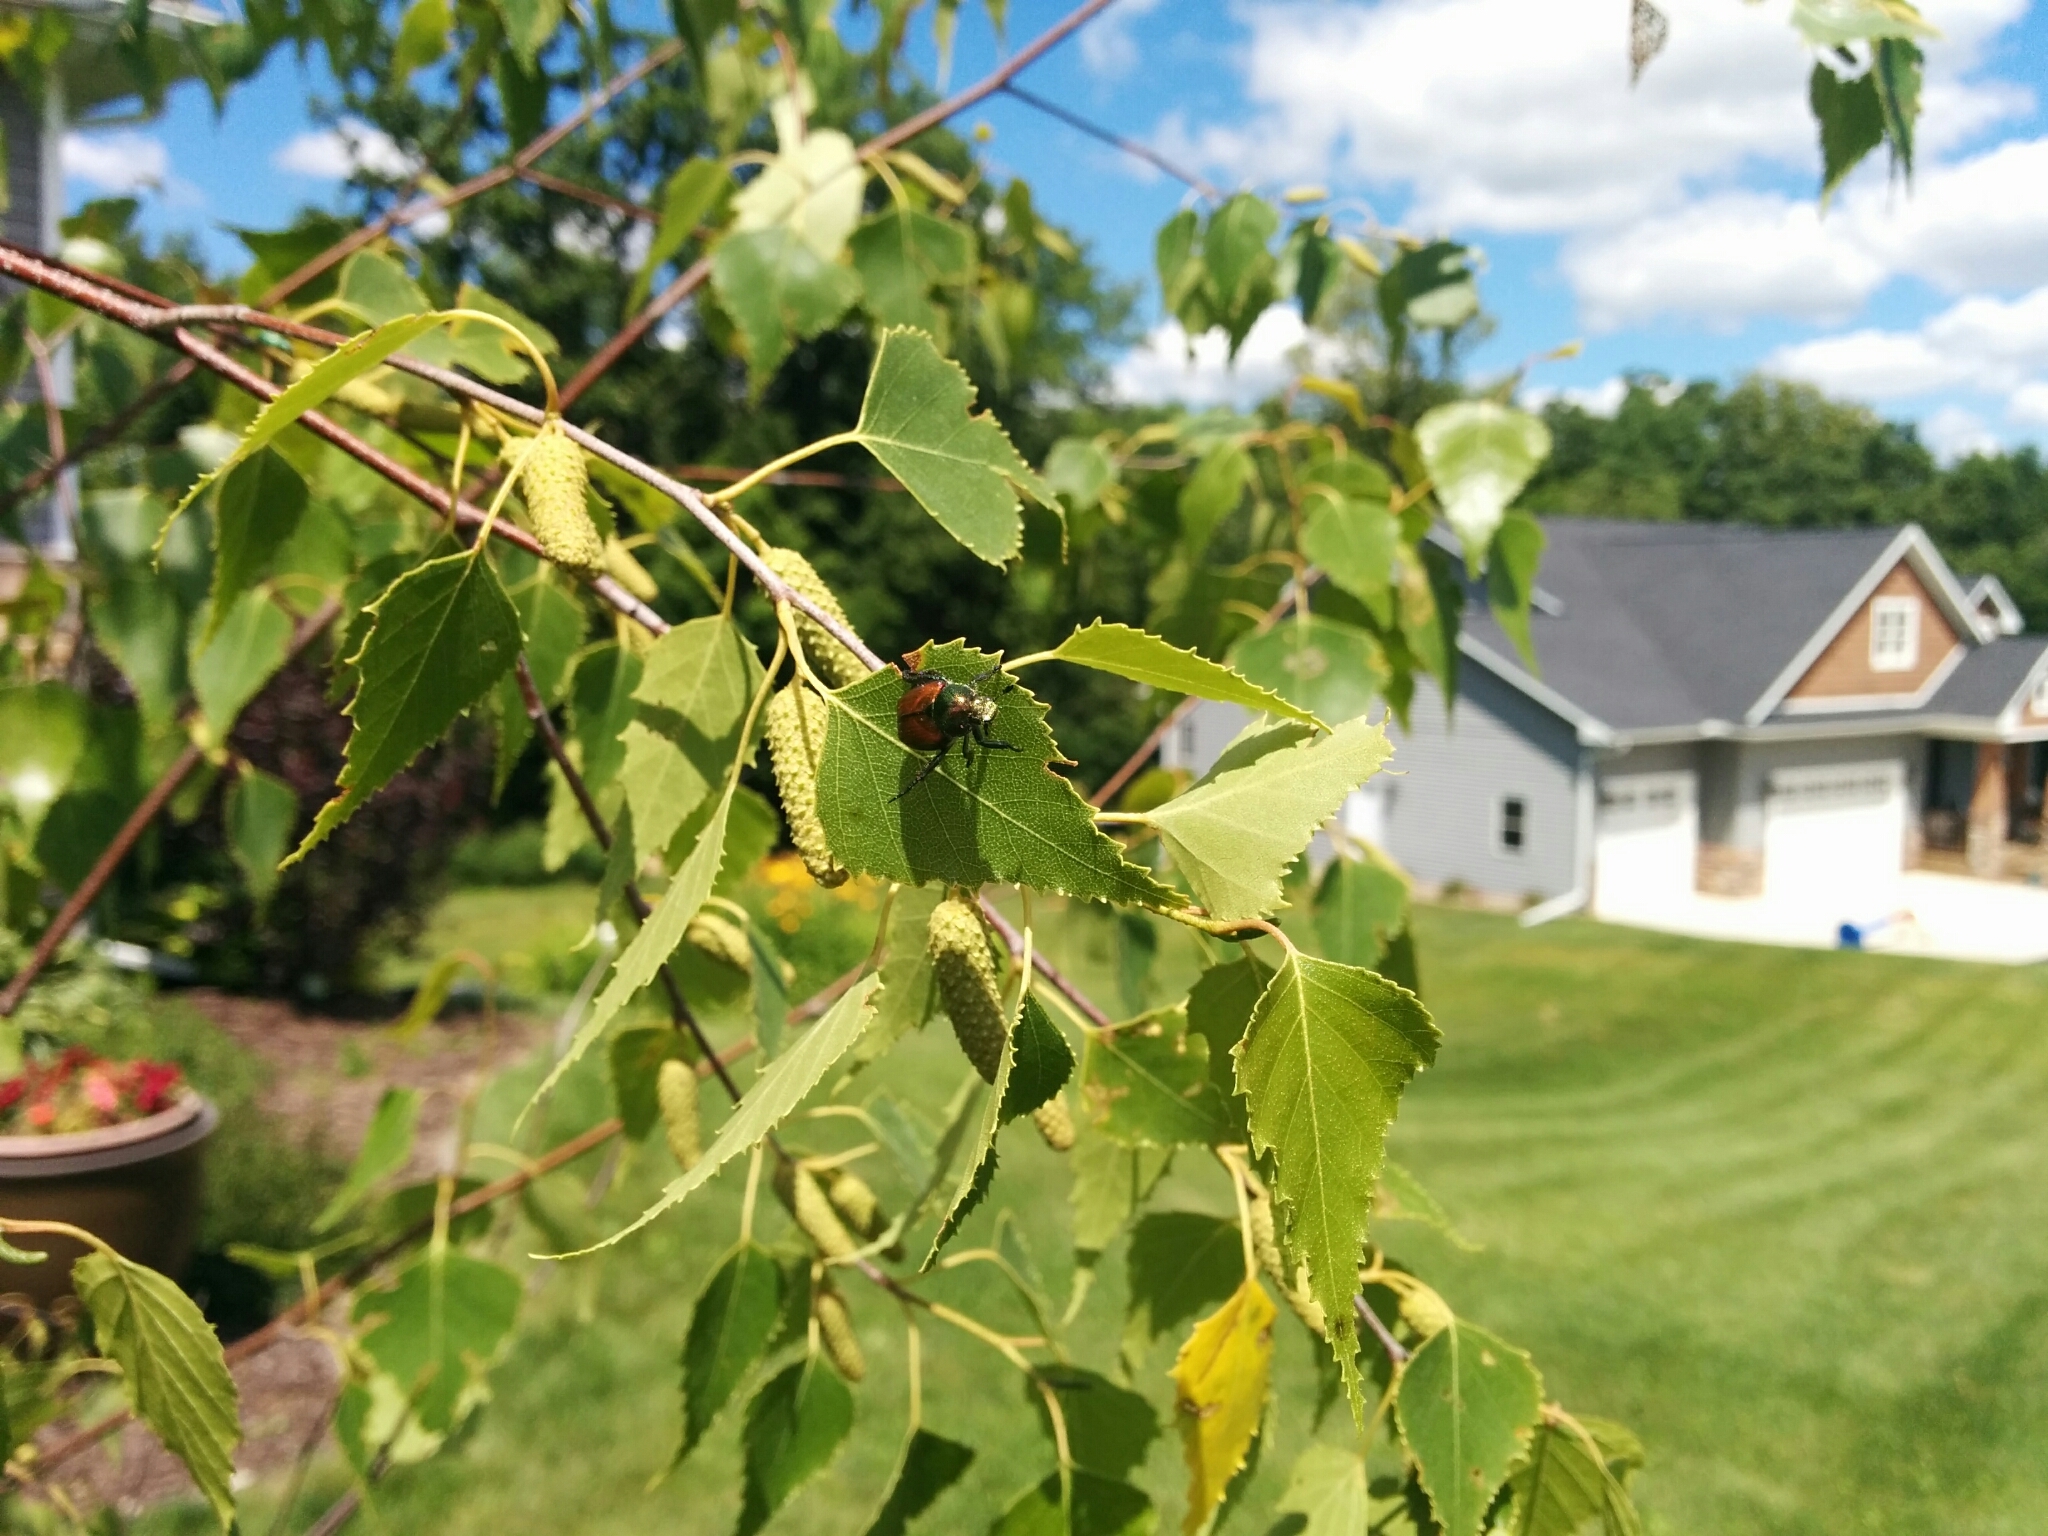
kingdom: Animalia
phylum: Arthropoda
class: Insecta
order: Coleoptera
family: Scarabaeidae
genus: Popillia
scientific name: Popillia japonica
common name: Japanese beetle
